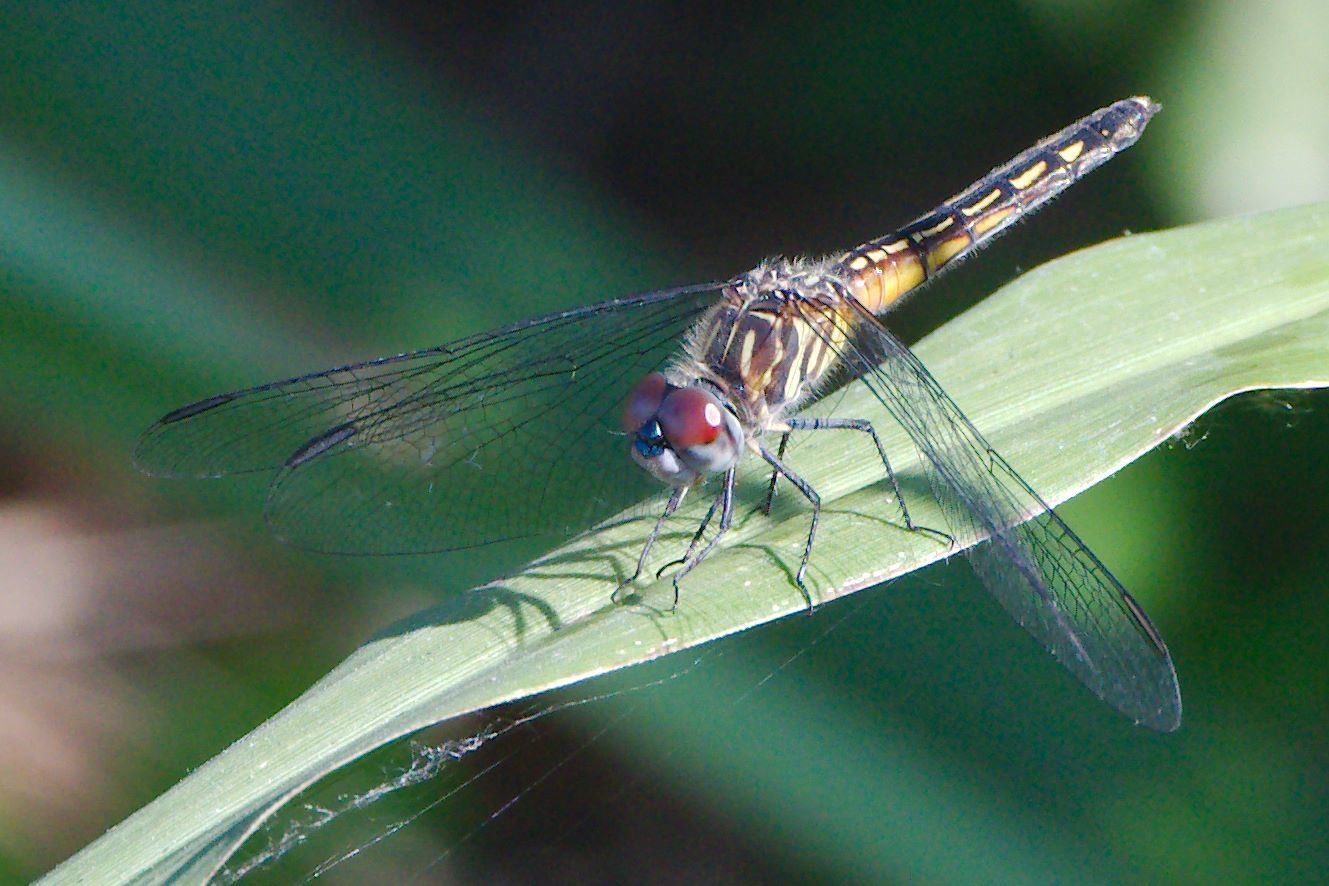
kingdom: Animalia
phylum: Arthropoda
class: Insecta
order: Odonata
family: Libellulidae
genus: Pachydiplax
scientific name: Pachydiplax longipennis
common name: Blue dasher
